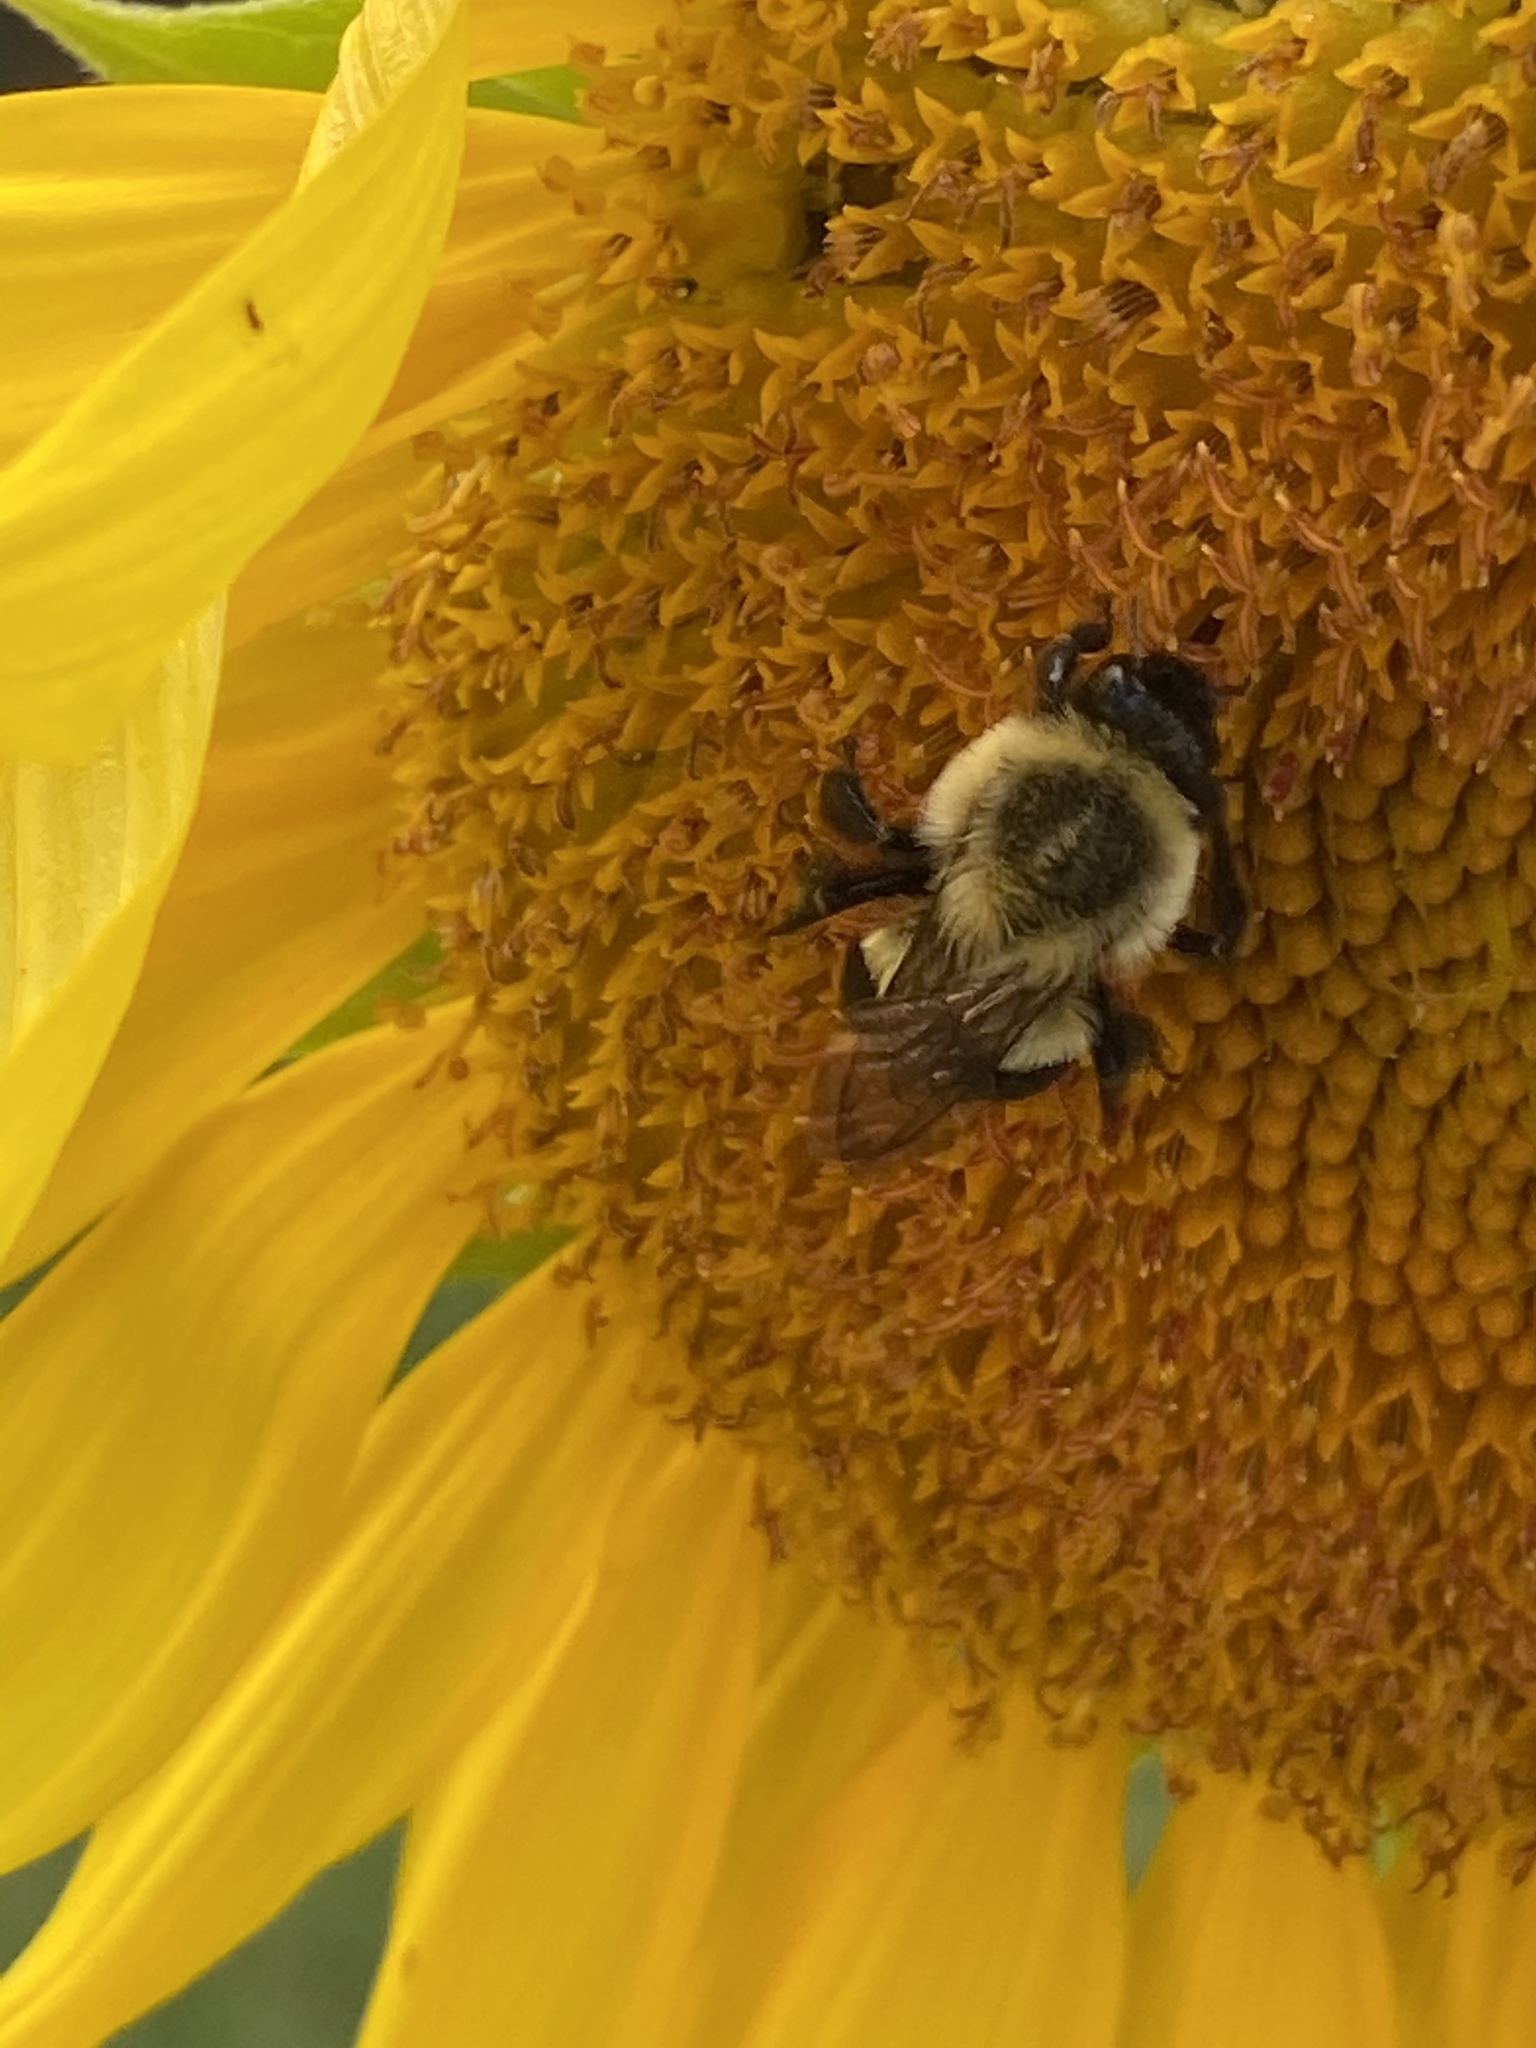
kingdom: Animalia
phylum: Arthropoda
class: Insecta
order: Hymenoptera
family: Apidae
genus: Bombus
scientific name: Bombus impatiens
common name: Common eastern bumble bee
